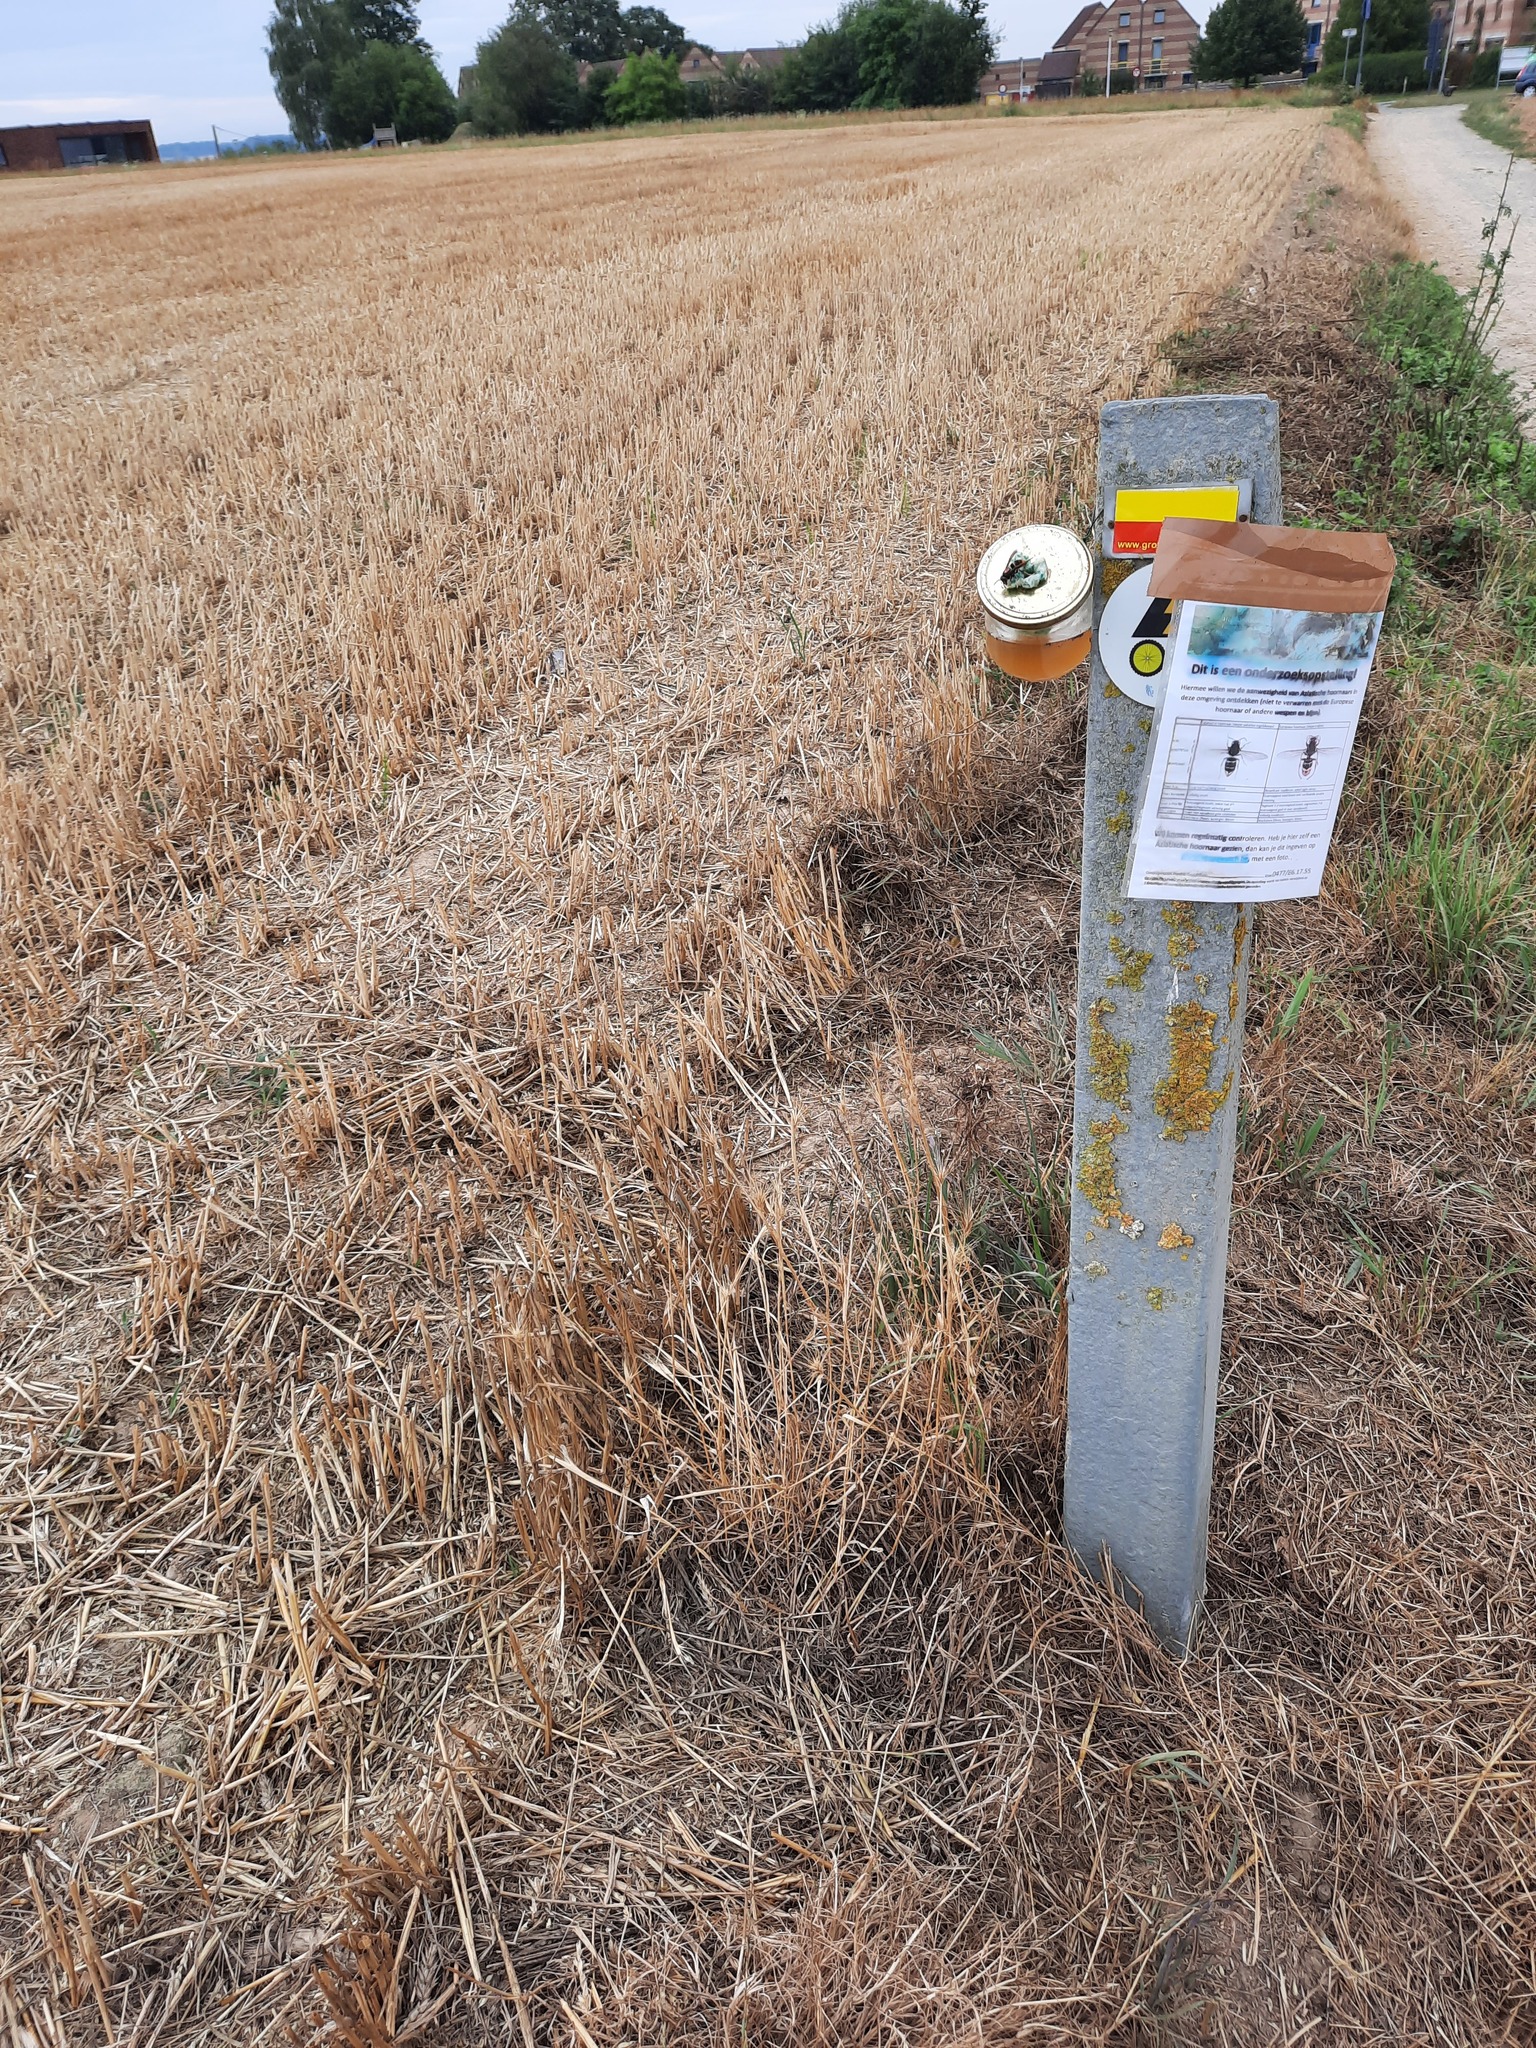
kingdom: Animalia
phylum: Arthropoda
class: Insecta
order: Hymenoptera
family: Vespidae
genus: Vespa
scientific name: Vespa velutina
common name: Asian hornet
